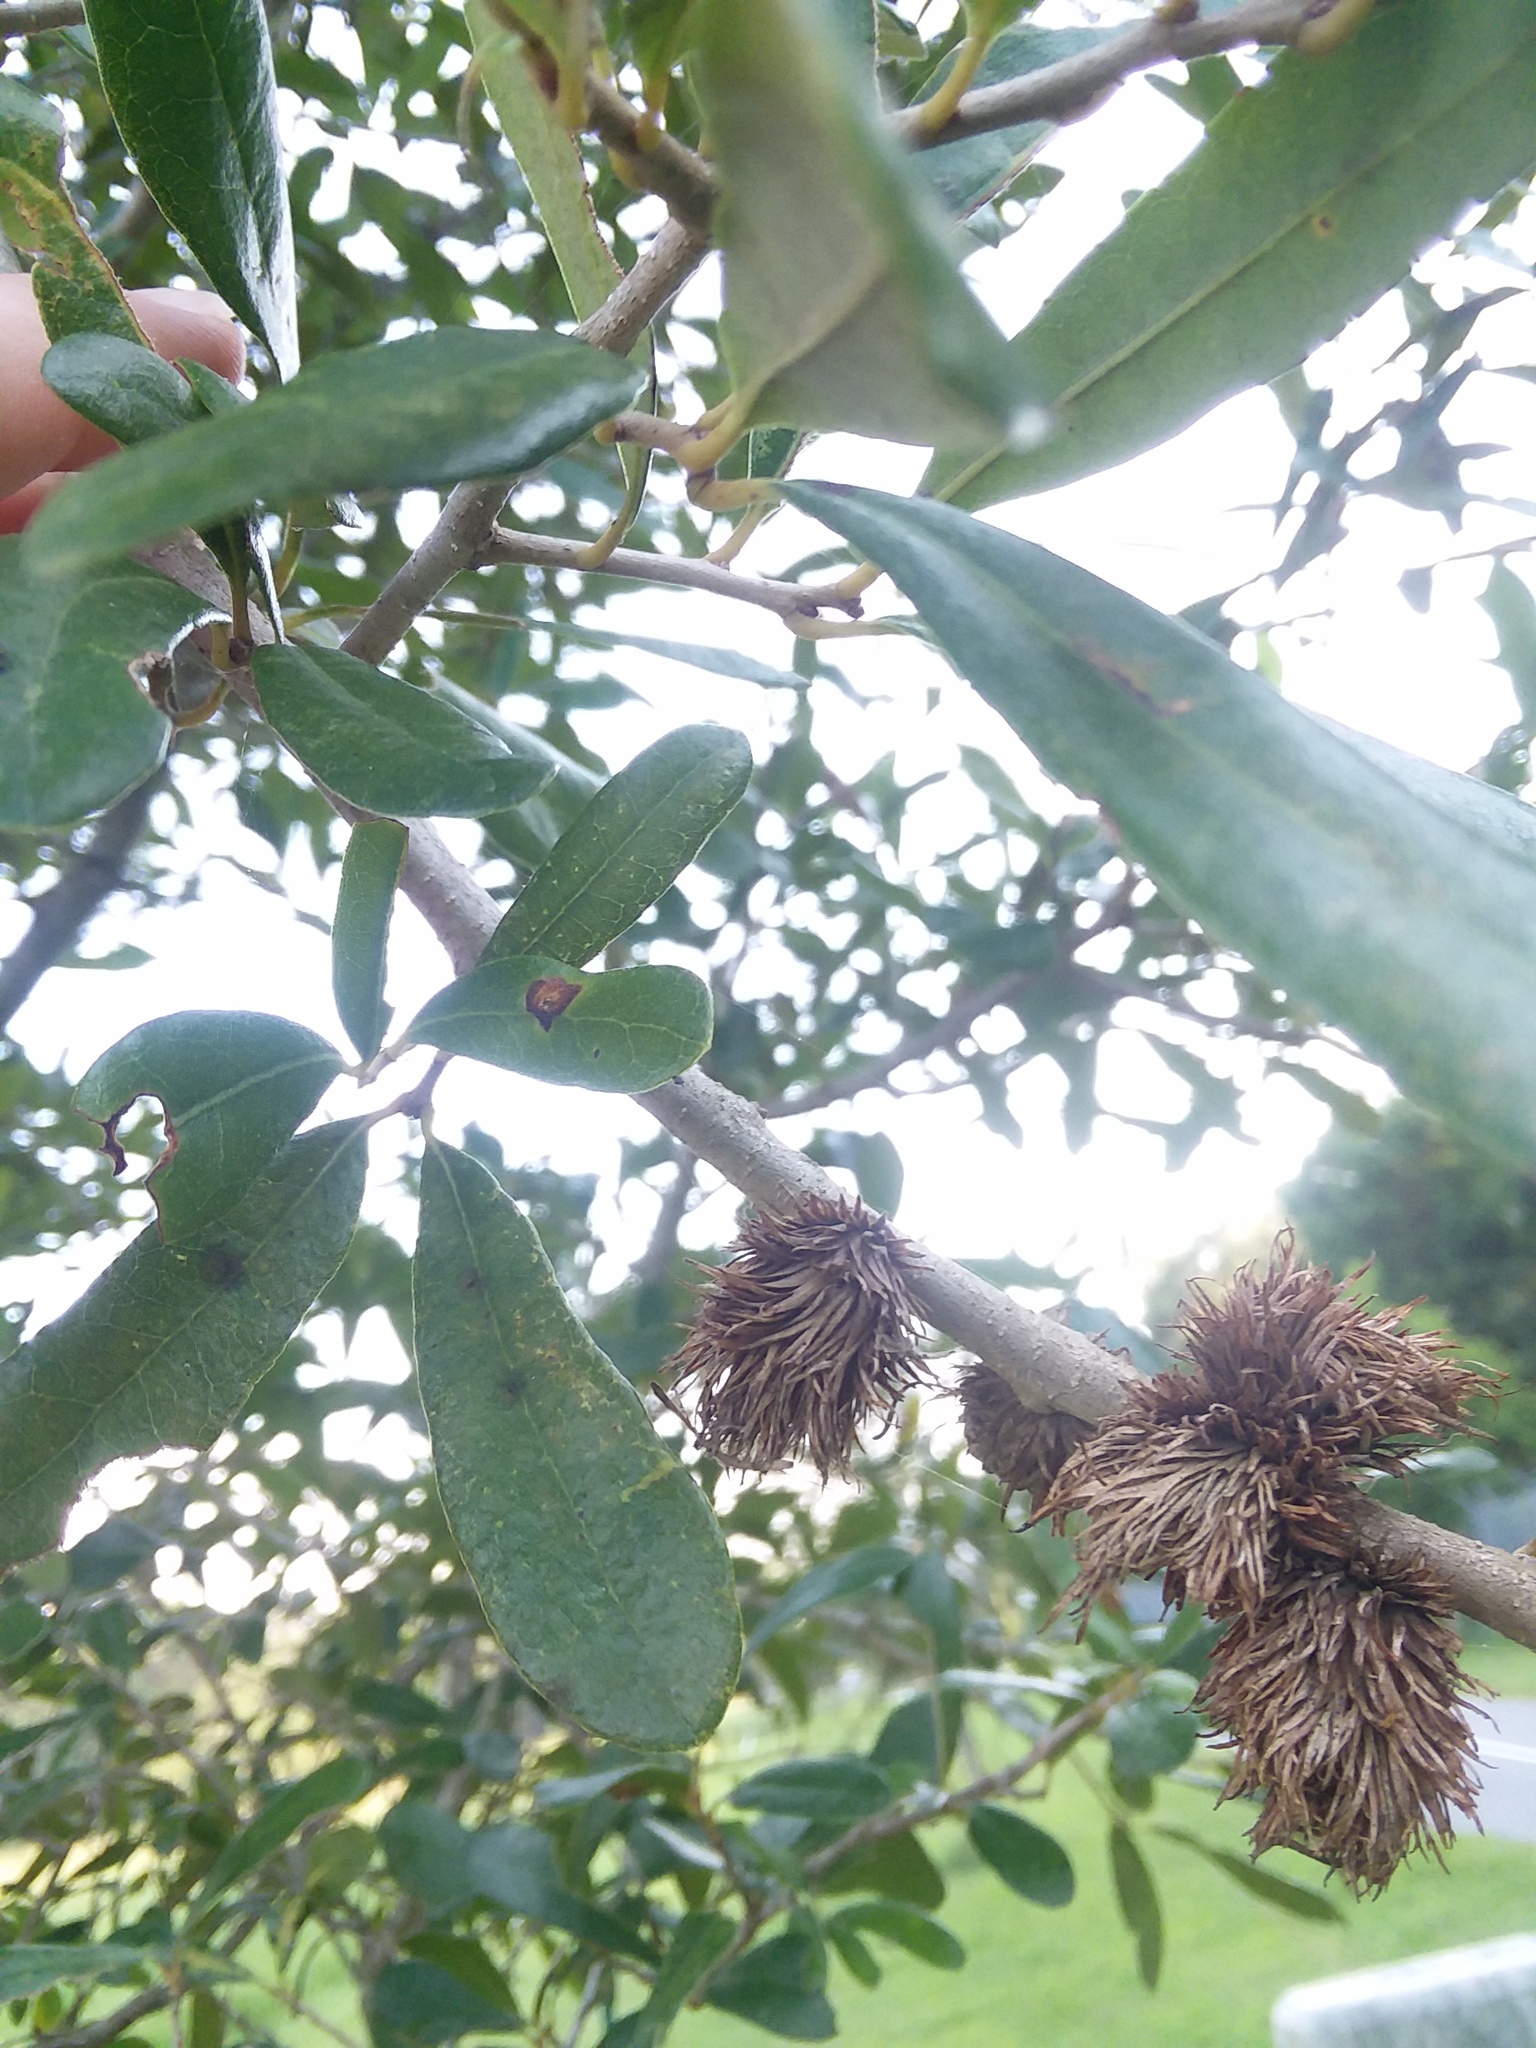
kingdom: Animalia
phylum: Arthropoda
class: Insecta
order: Hymenoptera
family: Cynipidae
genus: Andricus
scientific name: Andricus quercusfoliatus
